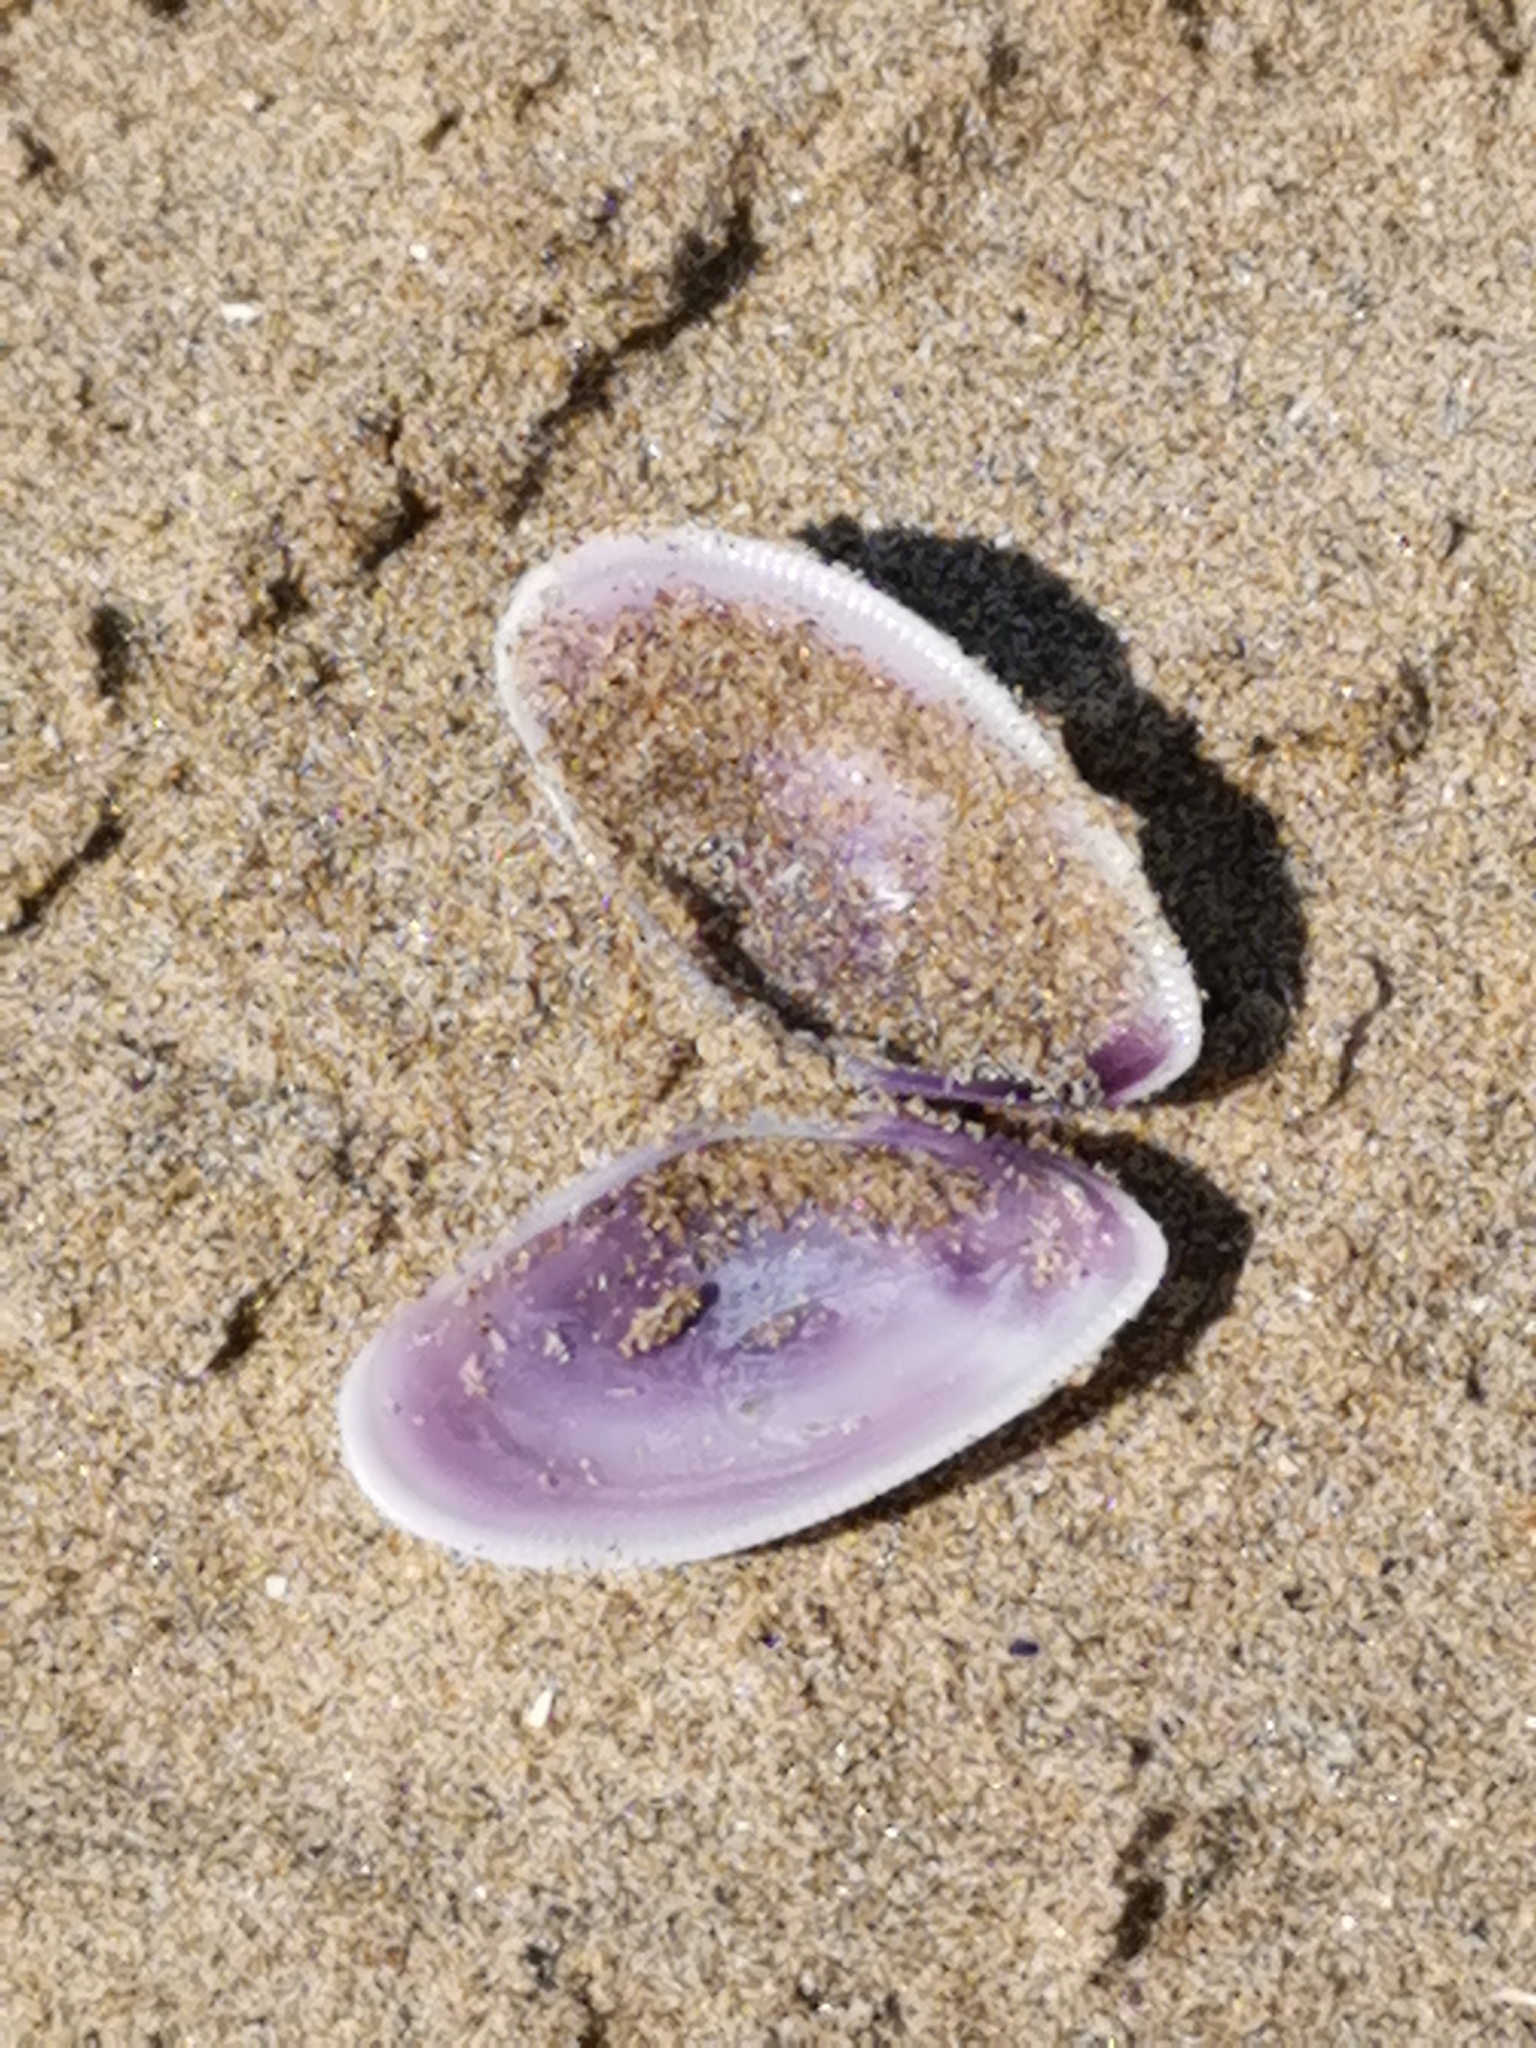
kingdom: Animalia
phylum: Mollusca
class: Bivalvia
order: Cardiida
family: Donacidae
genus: Donax
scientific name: Donax vittatus
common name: Banded wedge-shell
